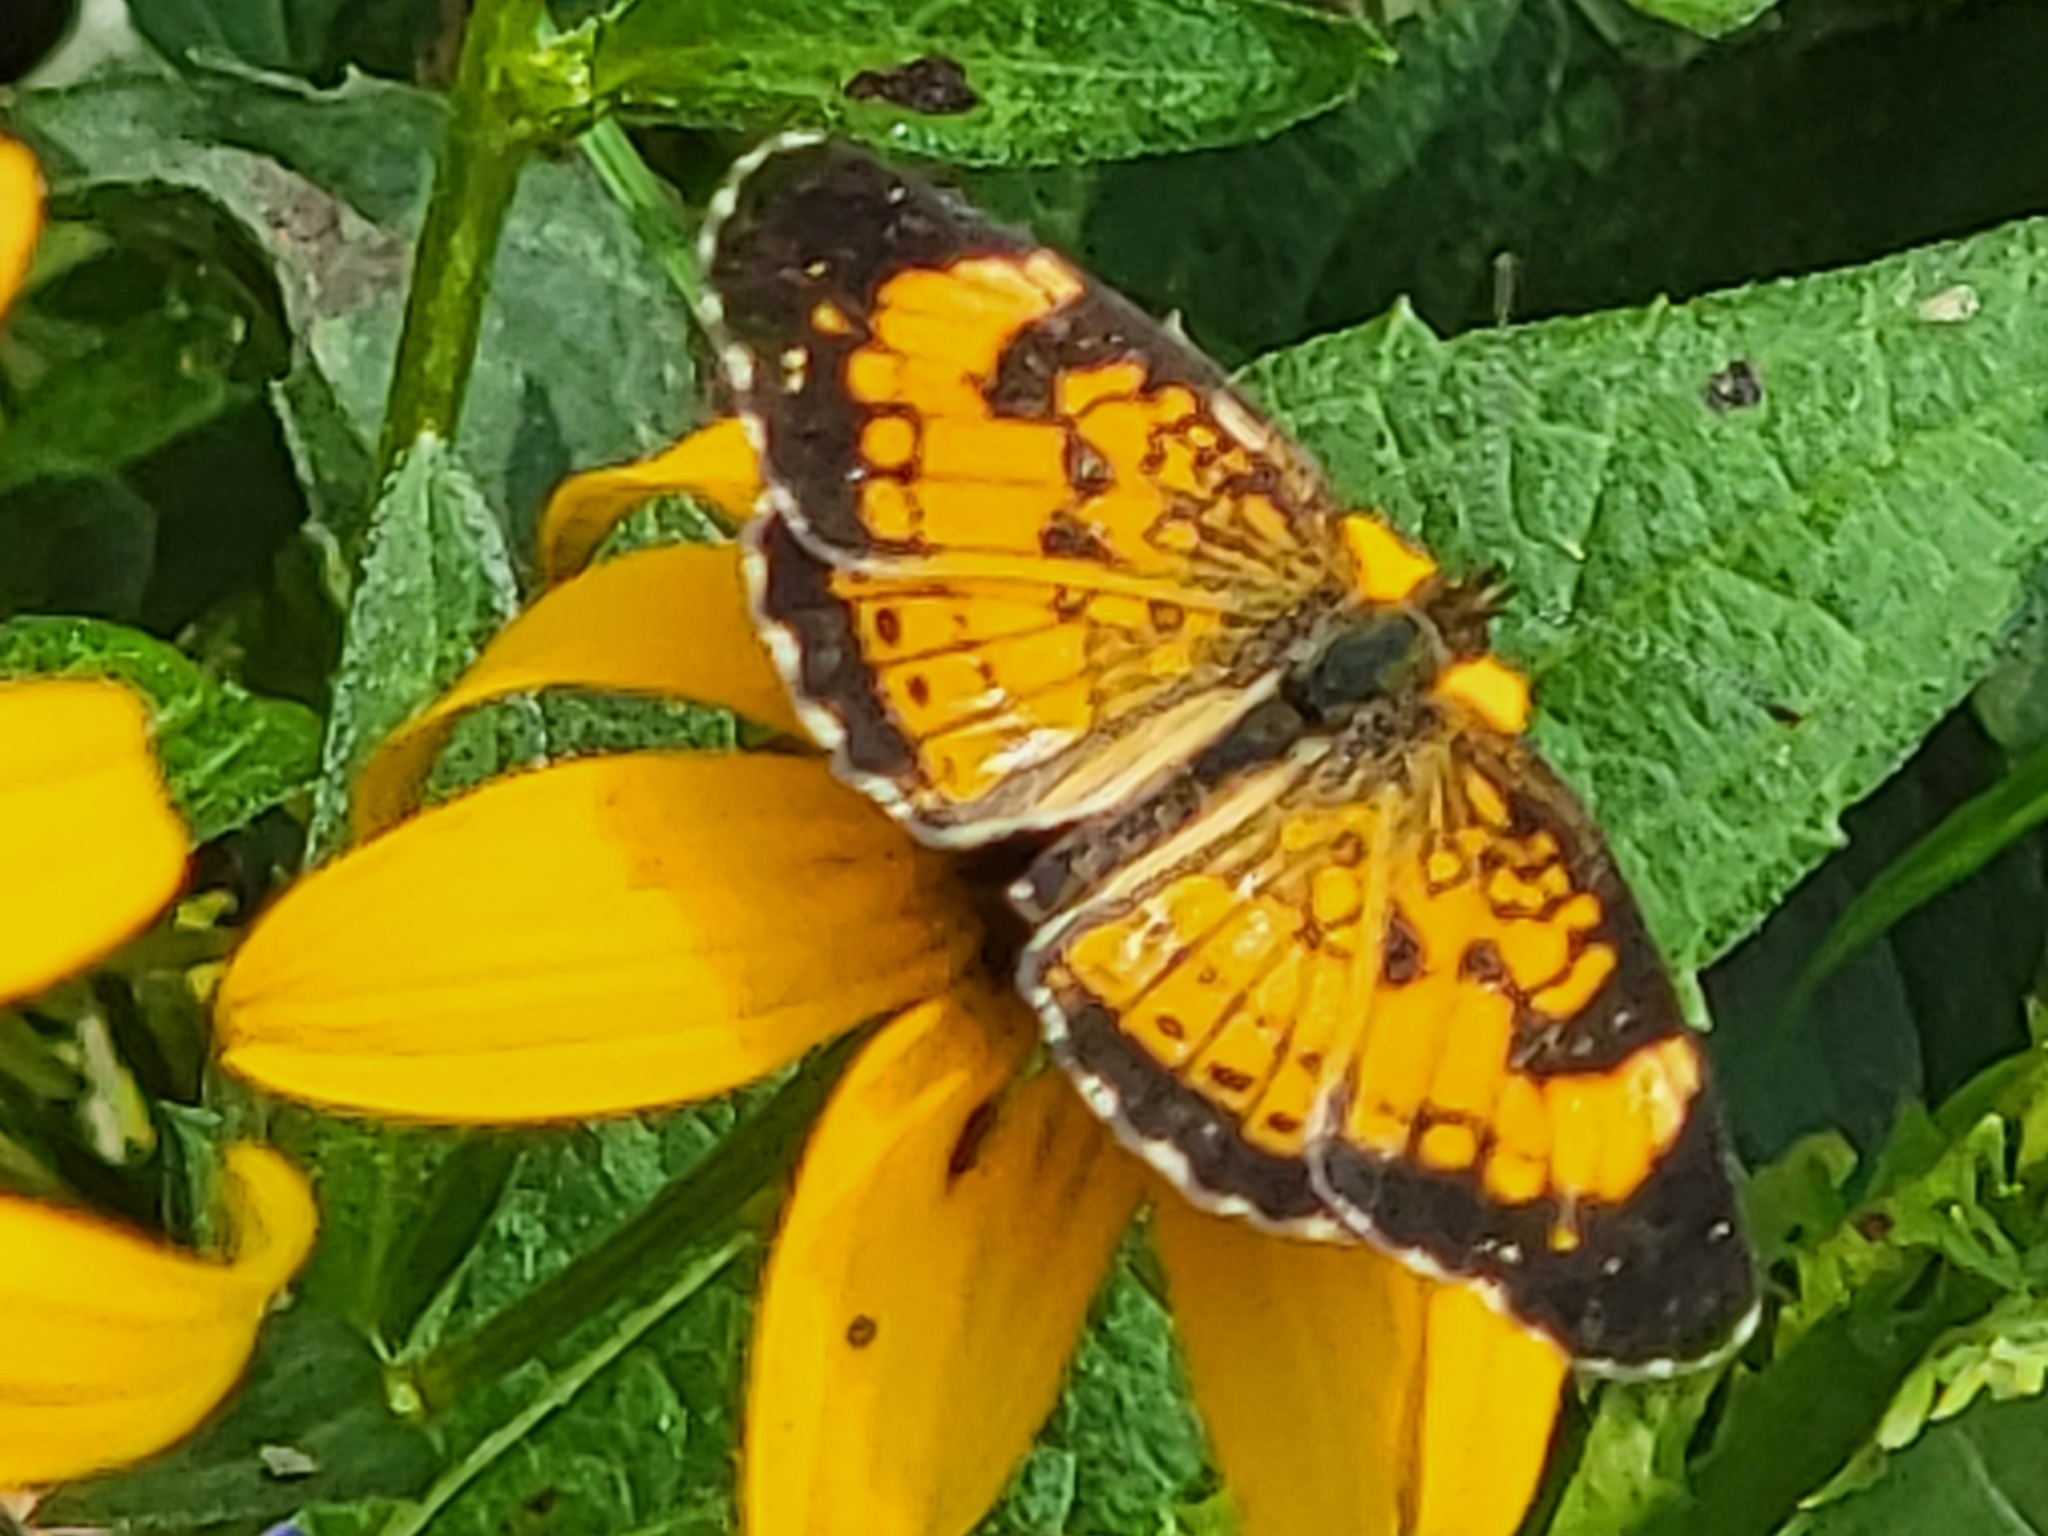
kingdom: Animalia
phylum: Arthropoda
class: Insecta
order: Lepidoptera
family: Nymphalidae
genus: Chlosyne
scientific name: Chlosyne nycteis
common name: Silvery checkerspot
